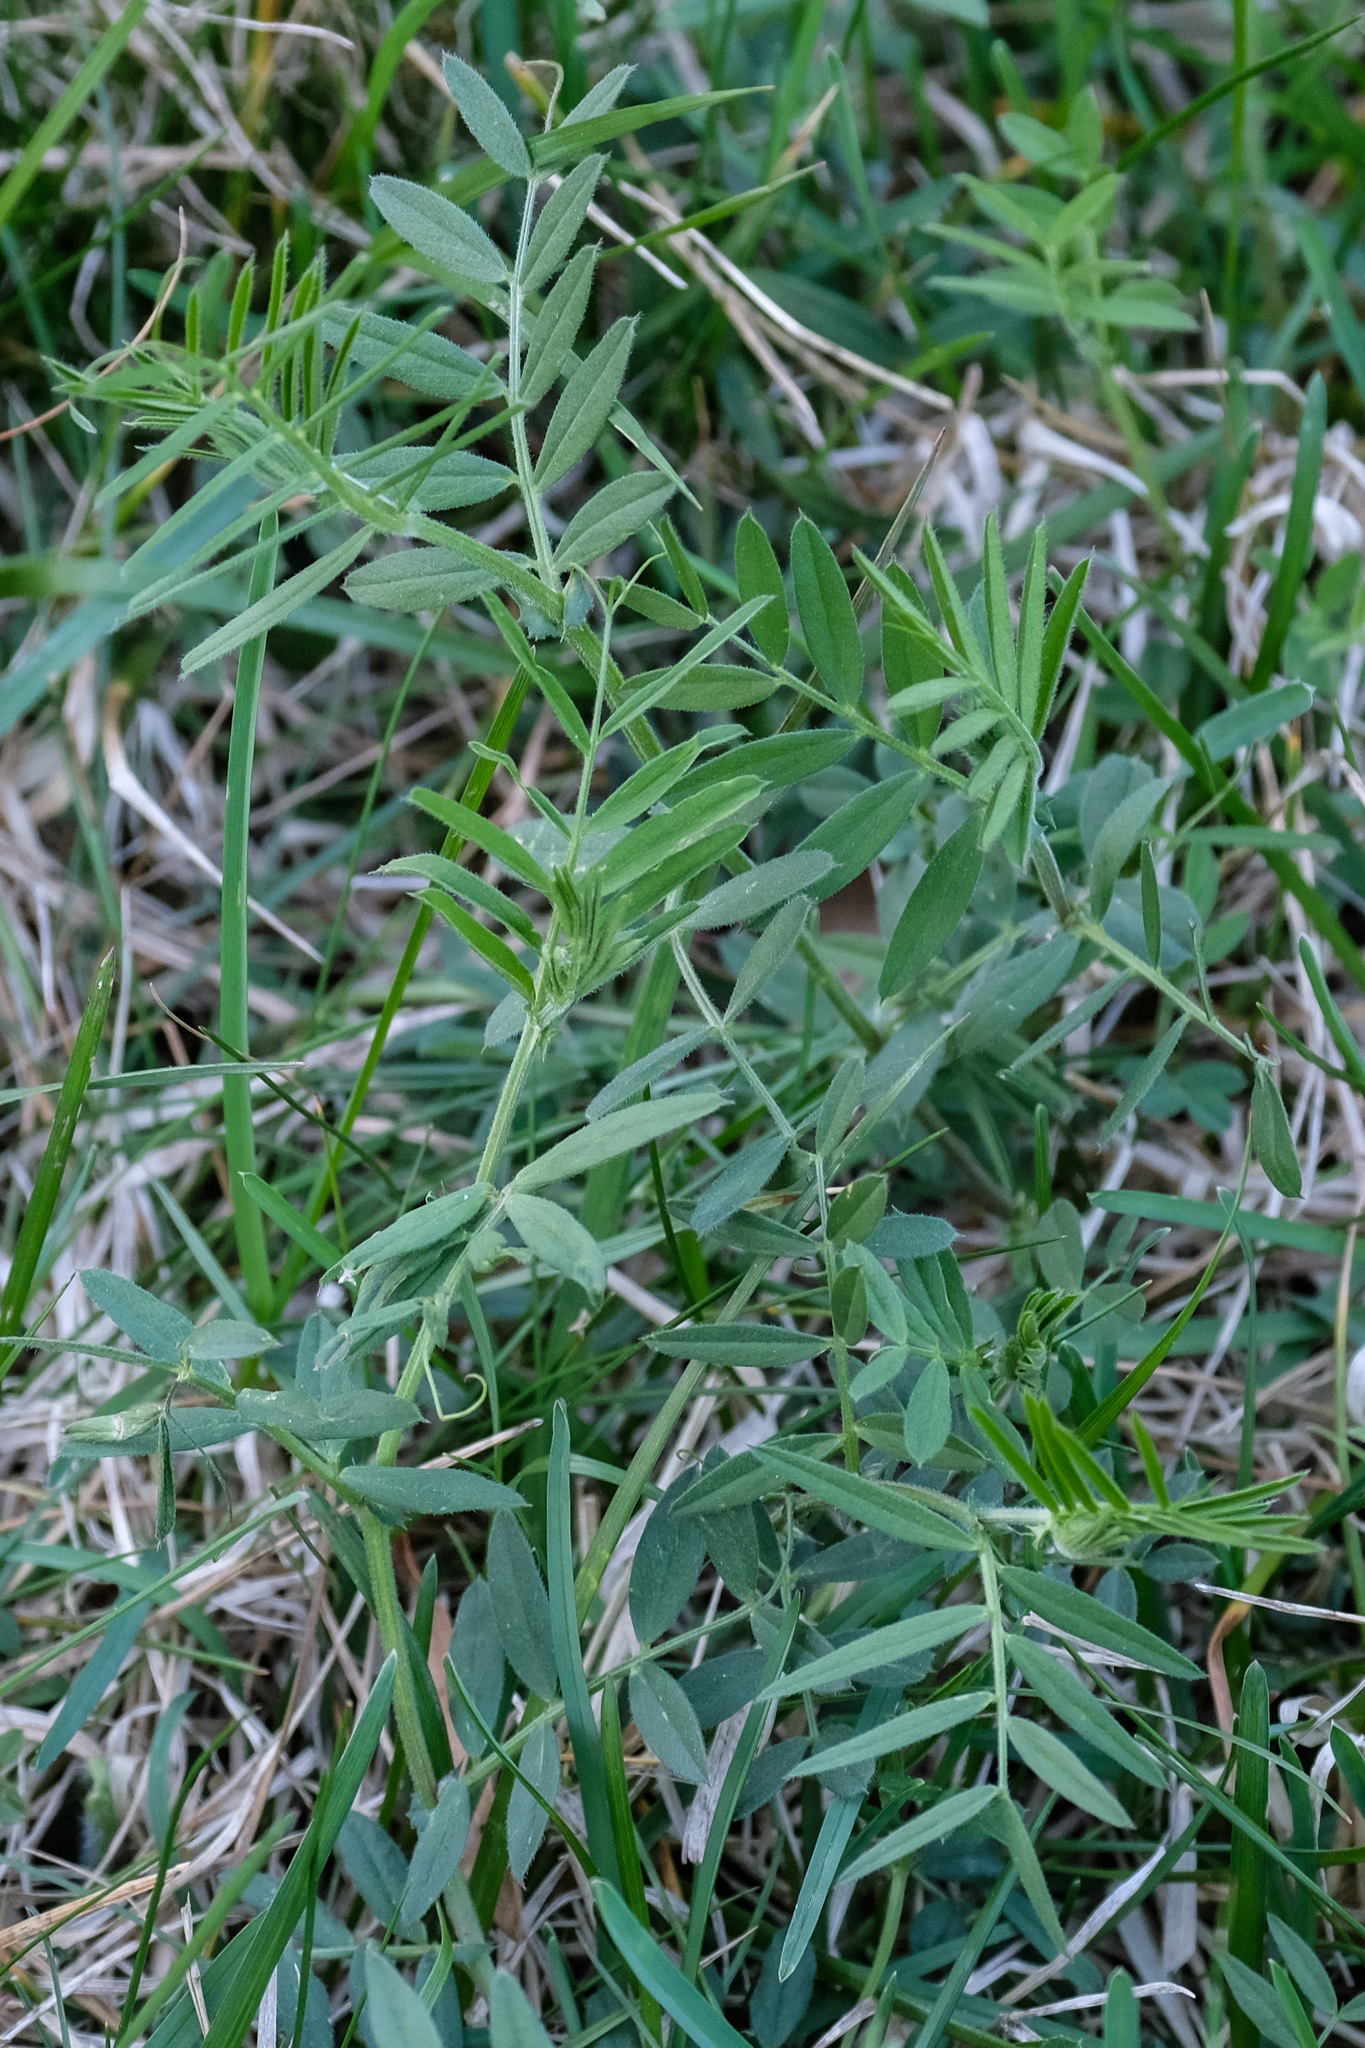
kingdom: Plantae
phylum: Tracheophyta
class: Magnoliopsida
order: Fabales
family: Fabaceae
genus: Vicia
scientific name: Vicia sativa
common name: Garden vetch
